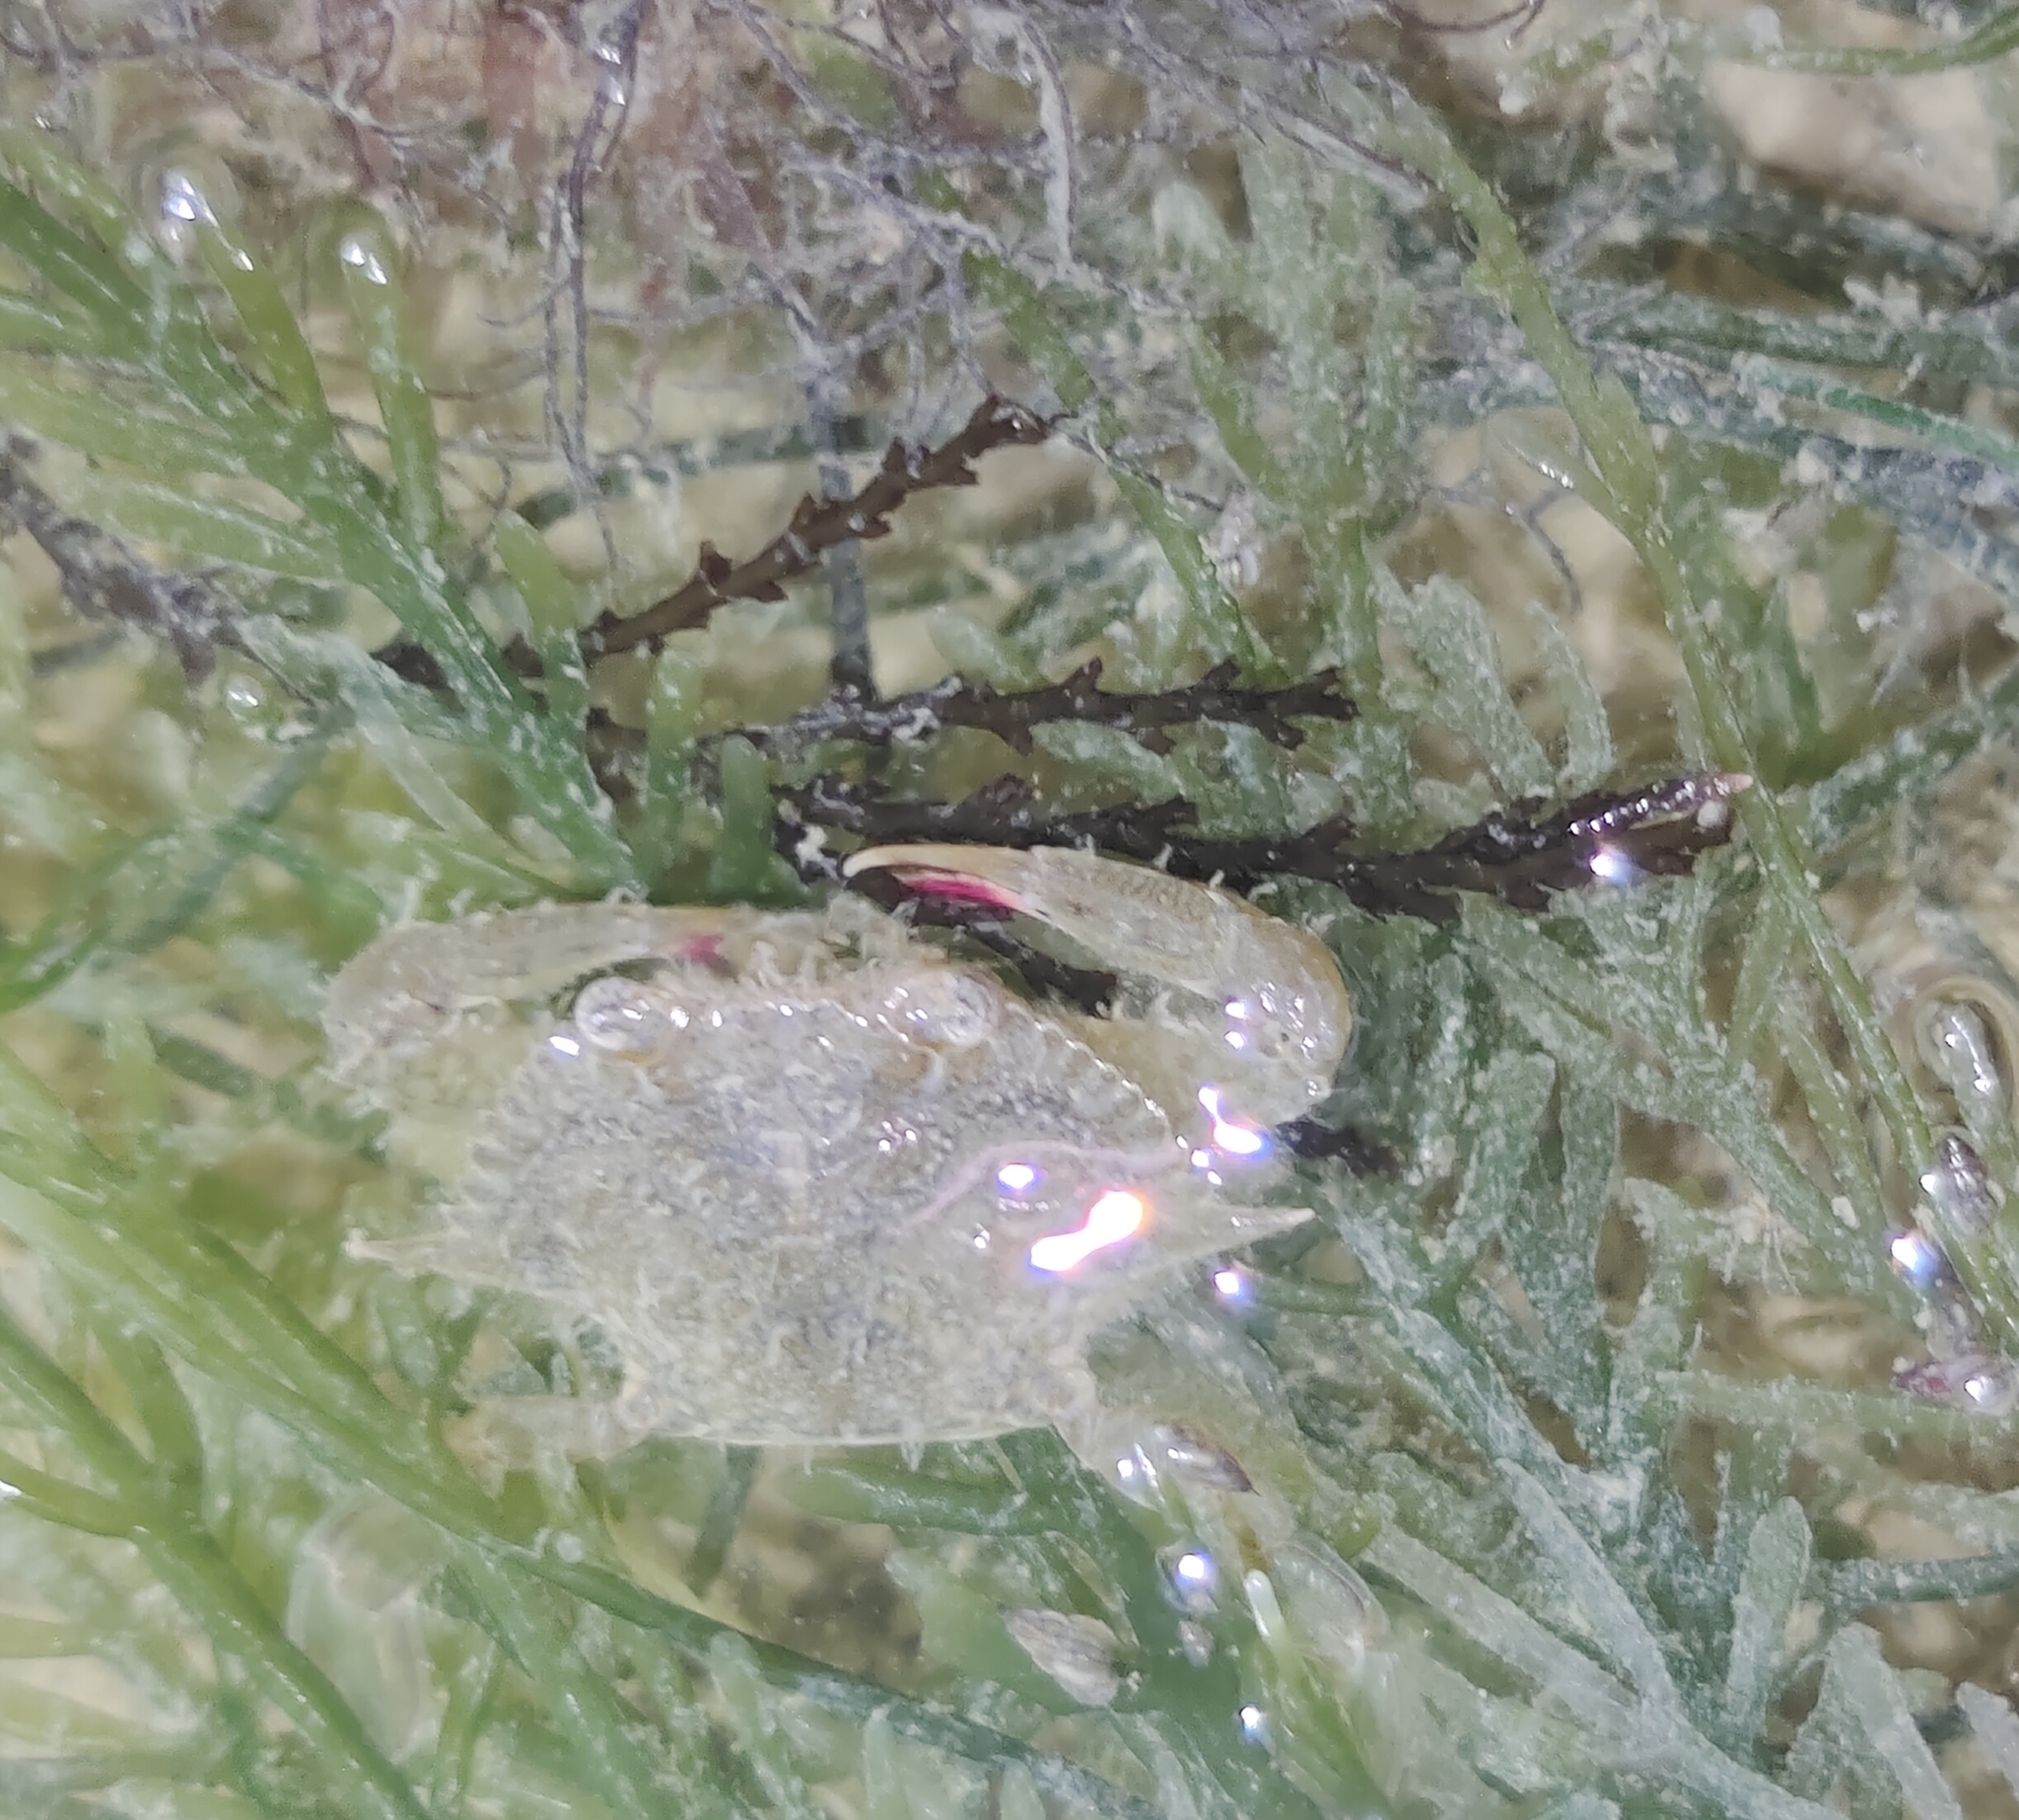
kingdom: Animalia
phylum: Arthropoda
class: Malacostraca
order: Decapoda
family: Portunidae
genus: Portunus
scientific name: Portunus pelagicus
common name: Blue swimming crab
